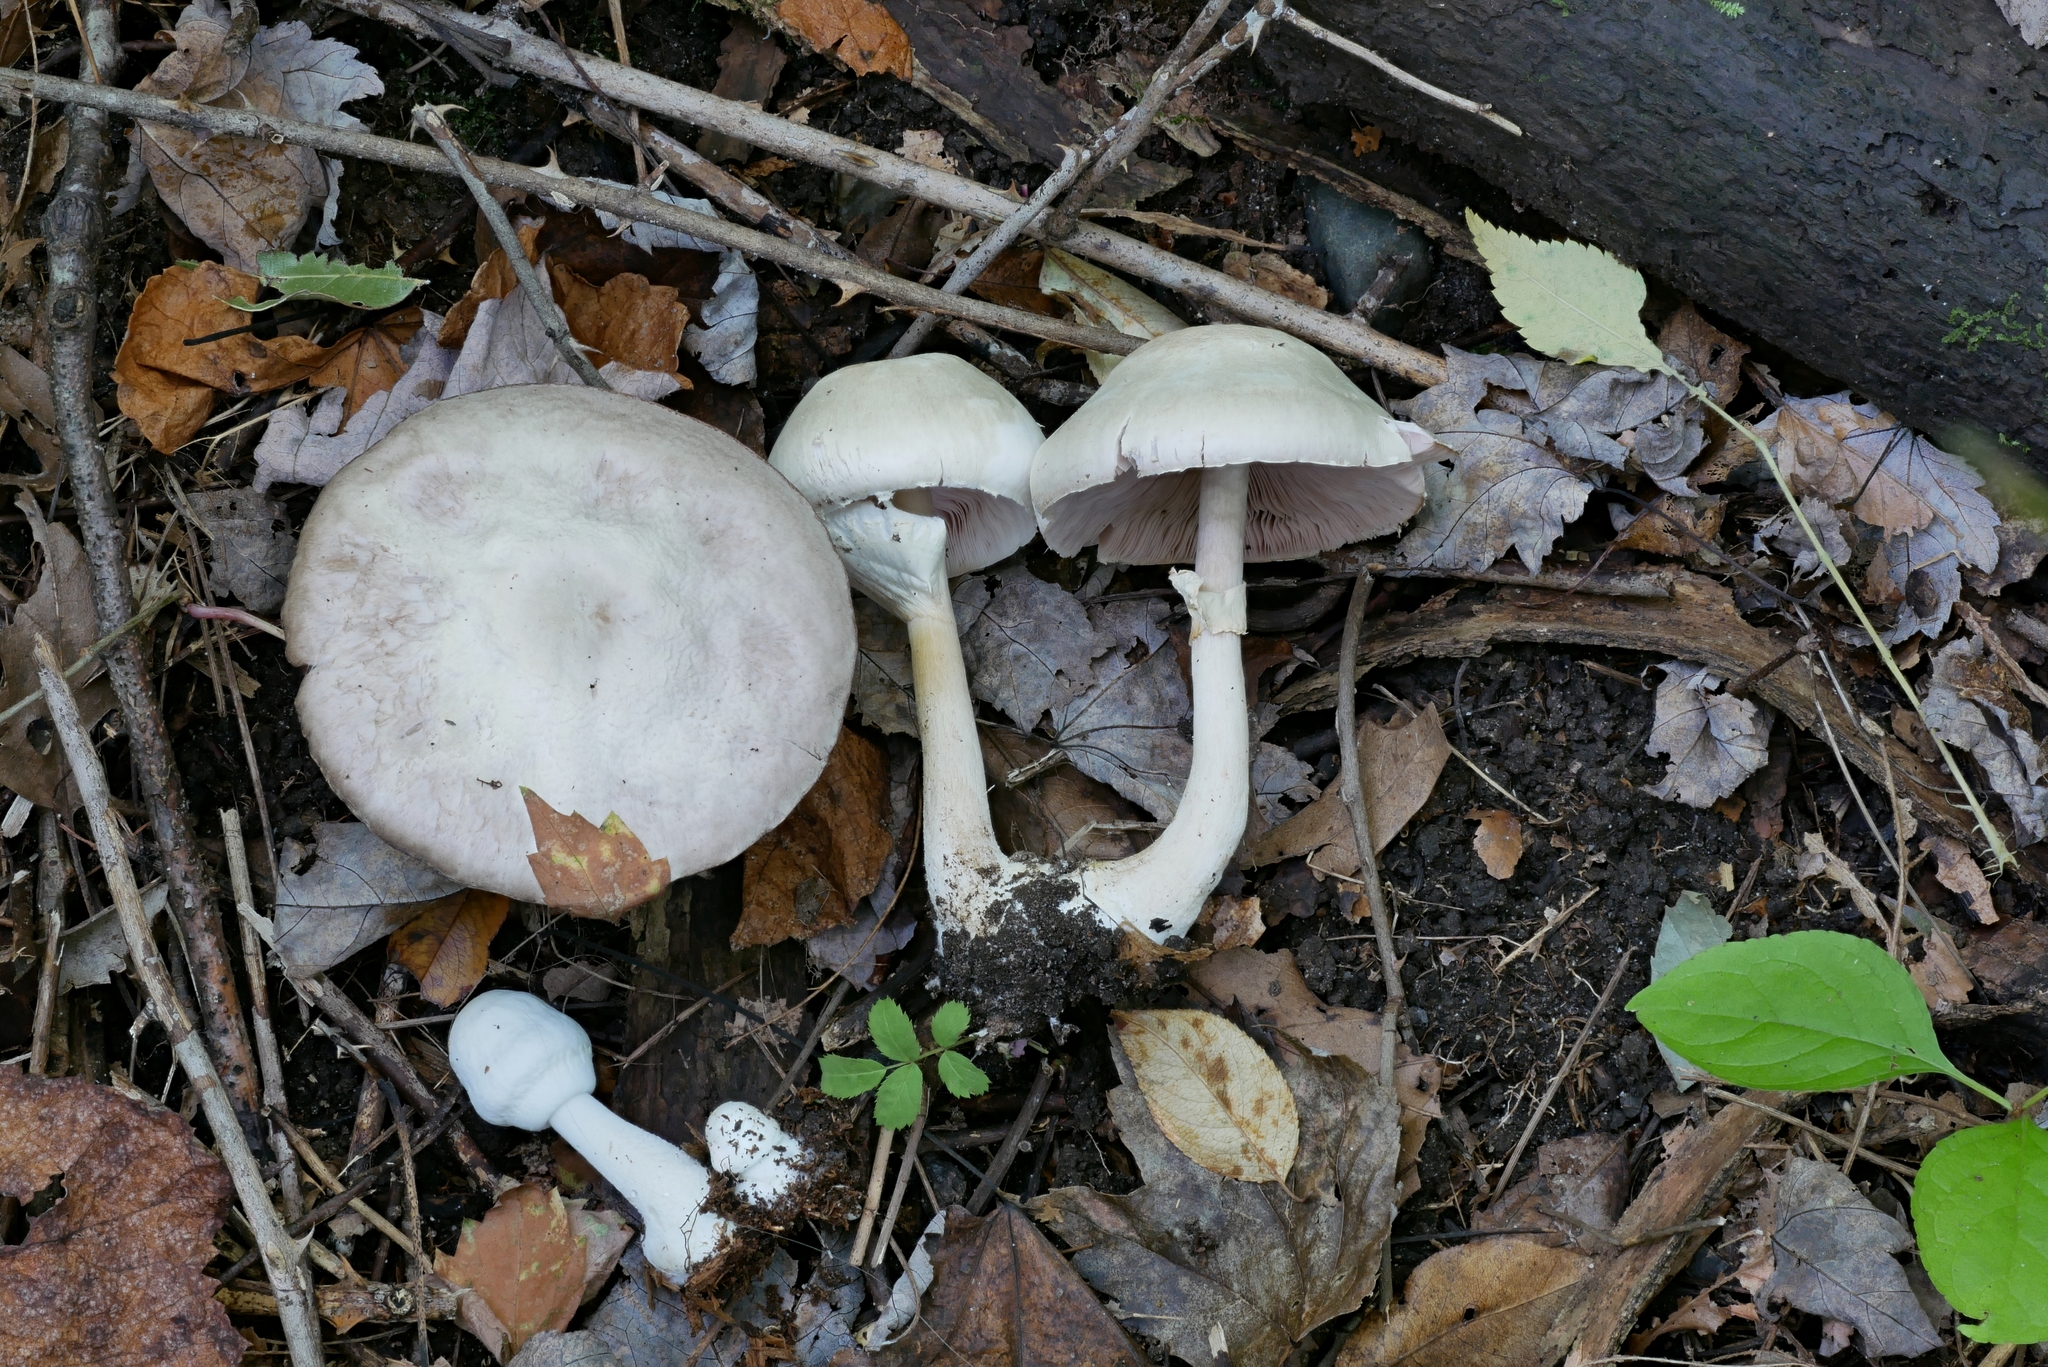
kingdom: Fungi
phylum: Basidiomycota
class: Agaricomycetes
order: Agaricales
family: Agaricaceae
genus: Agaricus
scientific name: Agaricus butyreburneus
